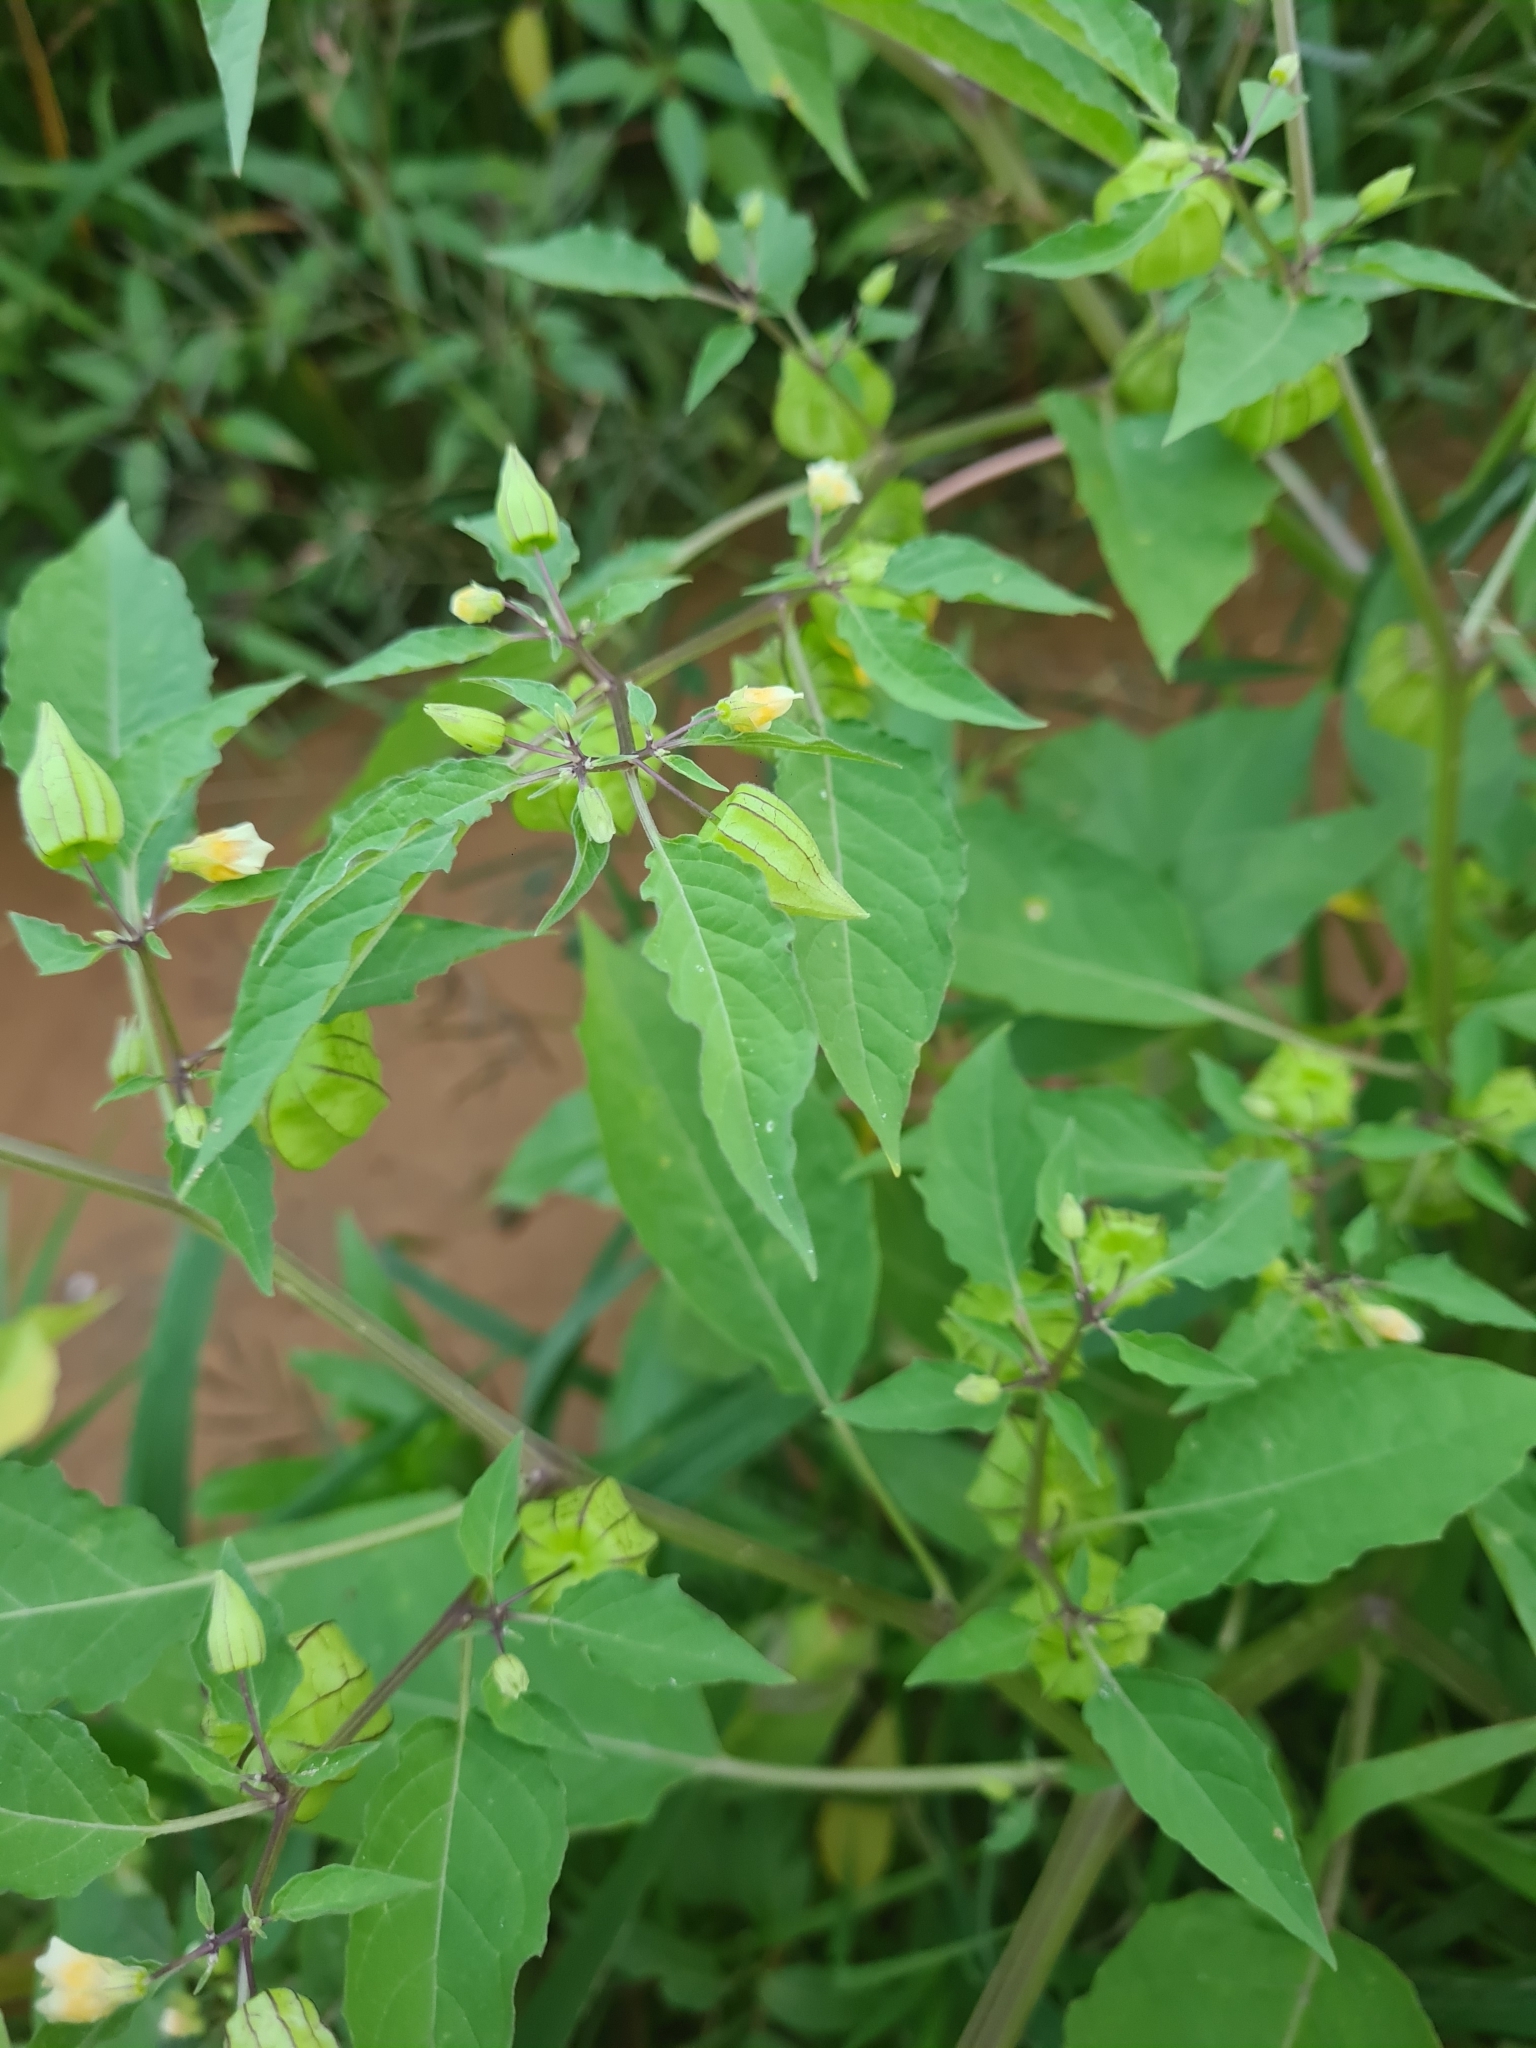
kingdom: Plantae
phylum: Tracheophyta
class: Magnoliopsida
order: Solanales
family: Solanaceae
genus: Physalis
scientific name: Physalis angulata
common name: Angular winter-cherry
